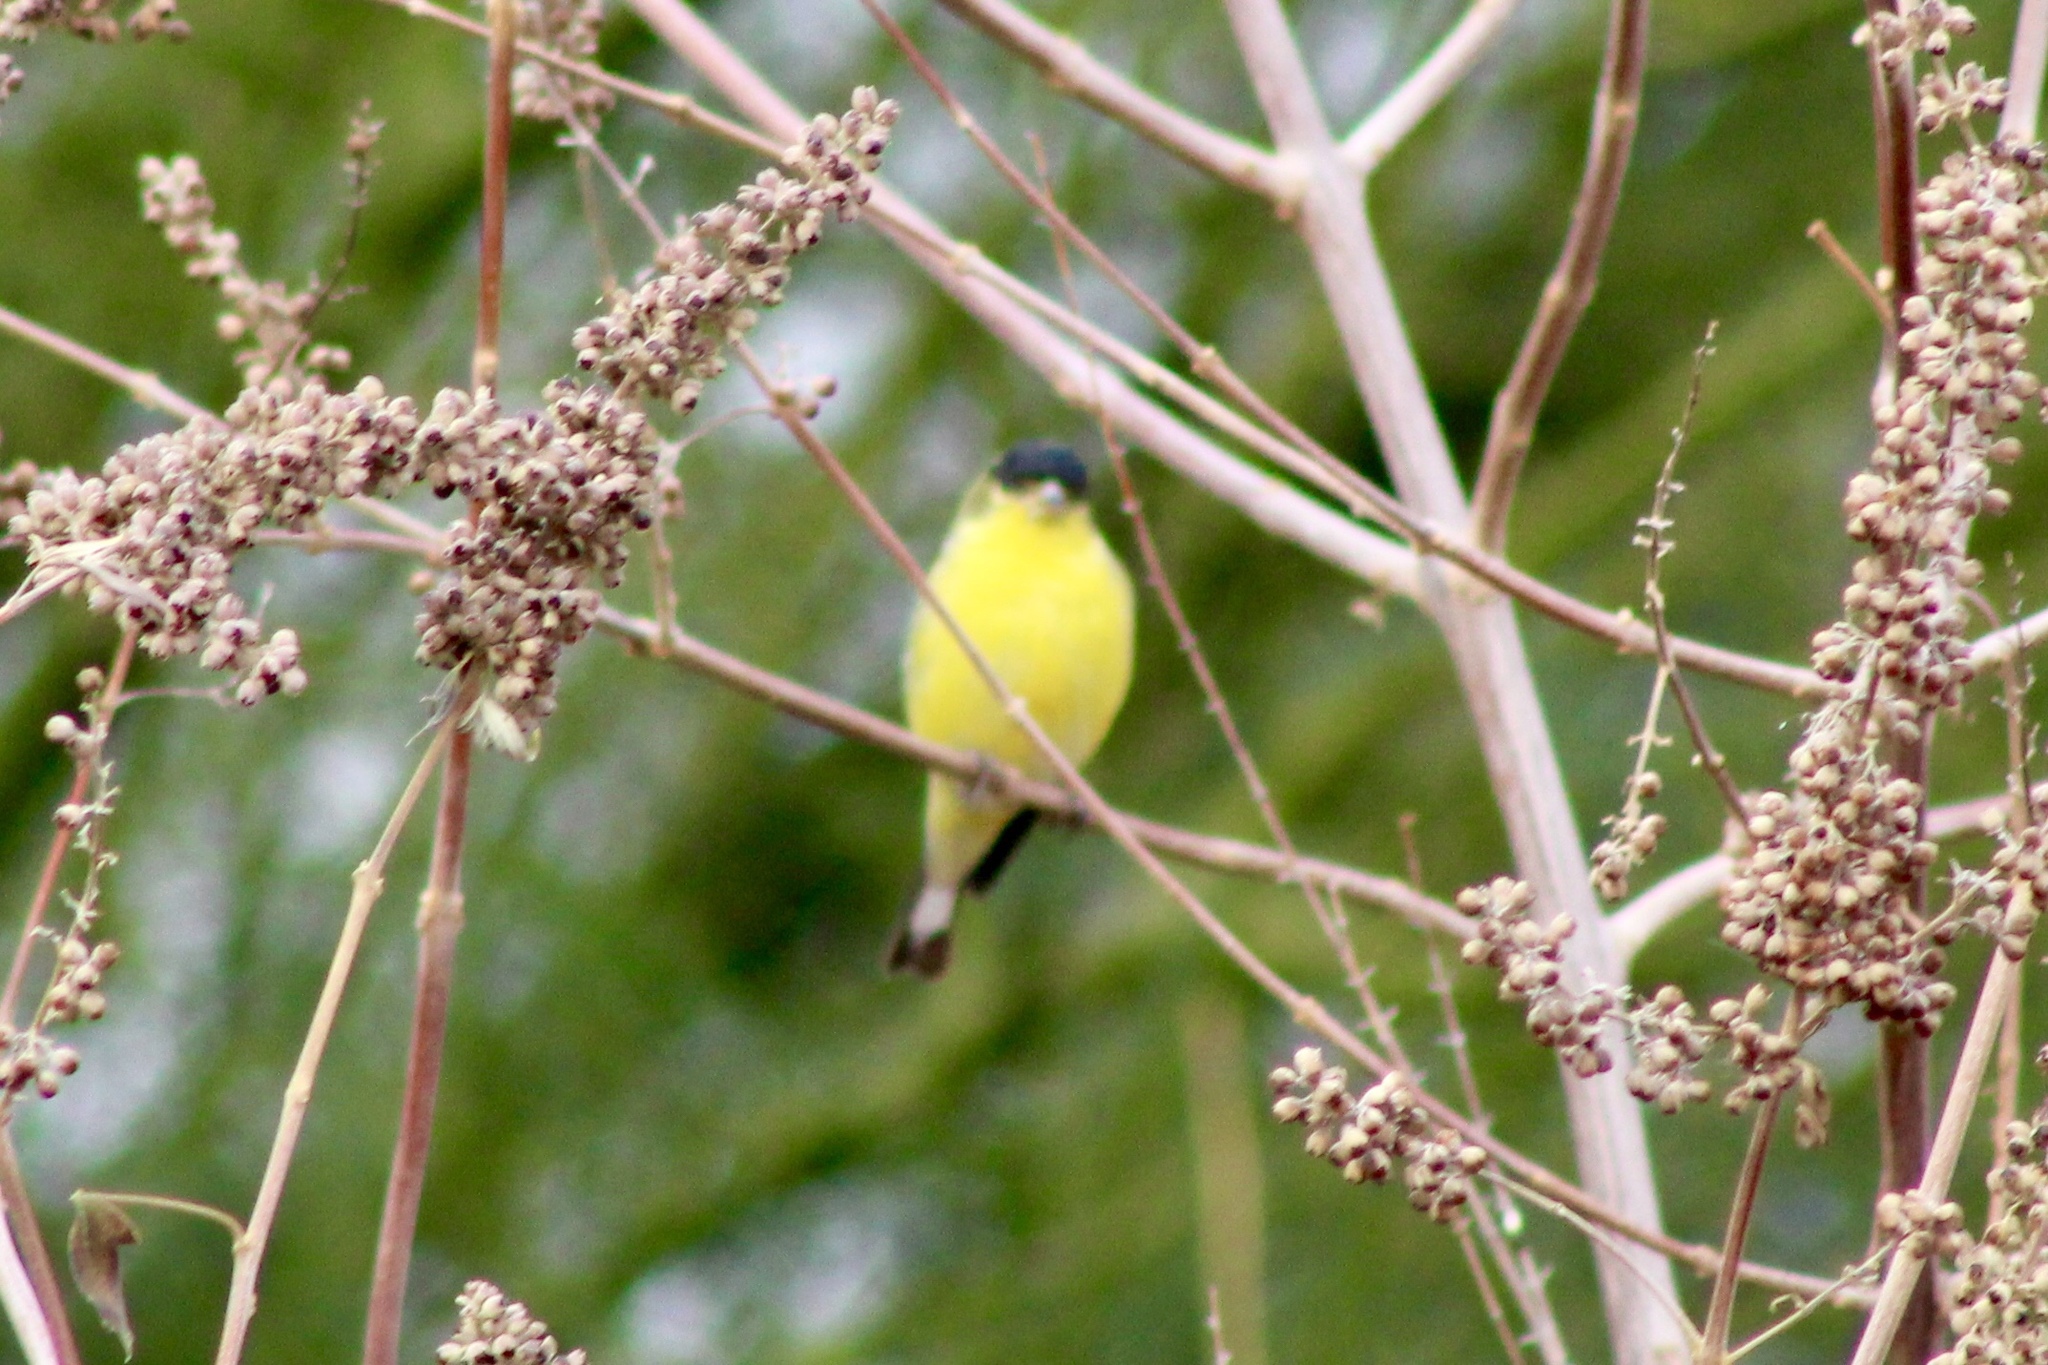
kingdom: Animalia
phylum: Chordata
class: Aves
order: Passeriformes
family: Fringillidae
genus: Spinus
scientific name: Spinus psaltria
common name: Lesser goldfinch
